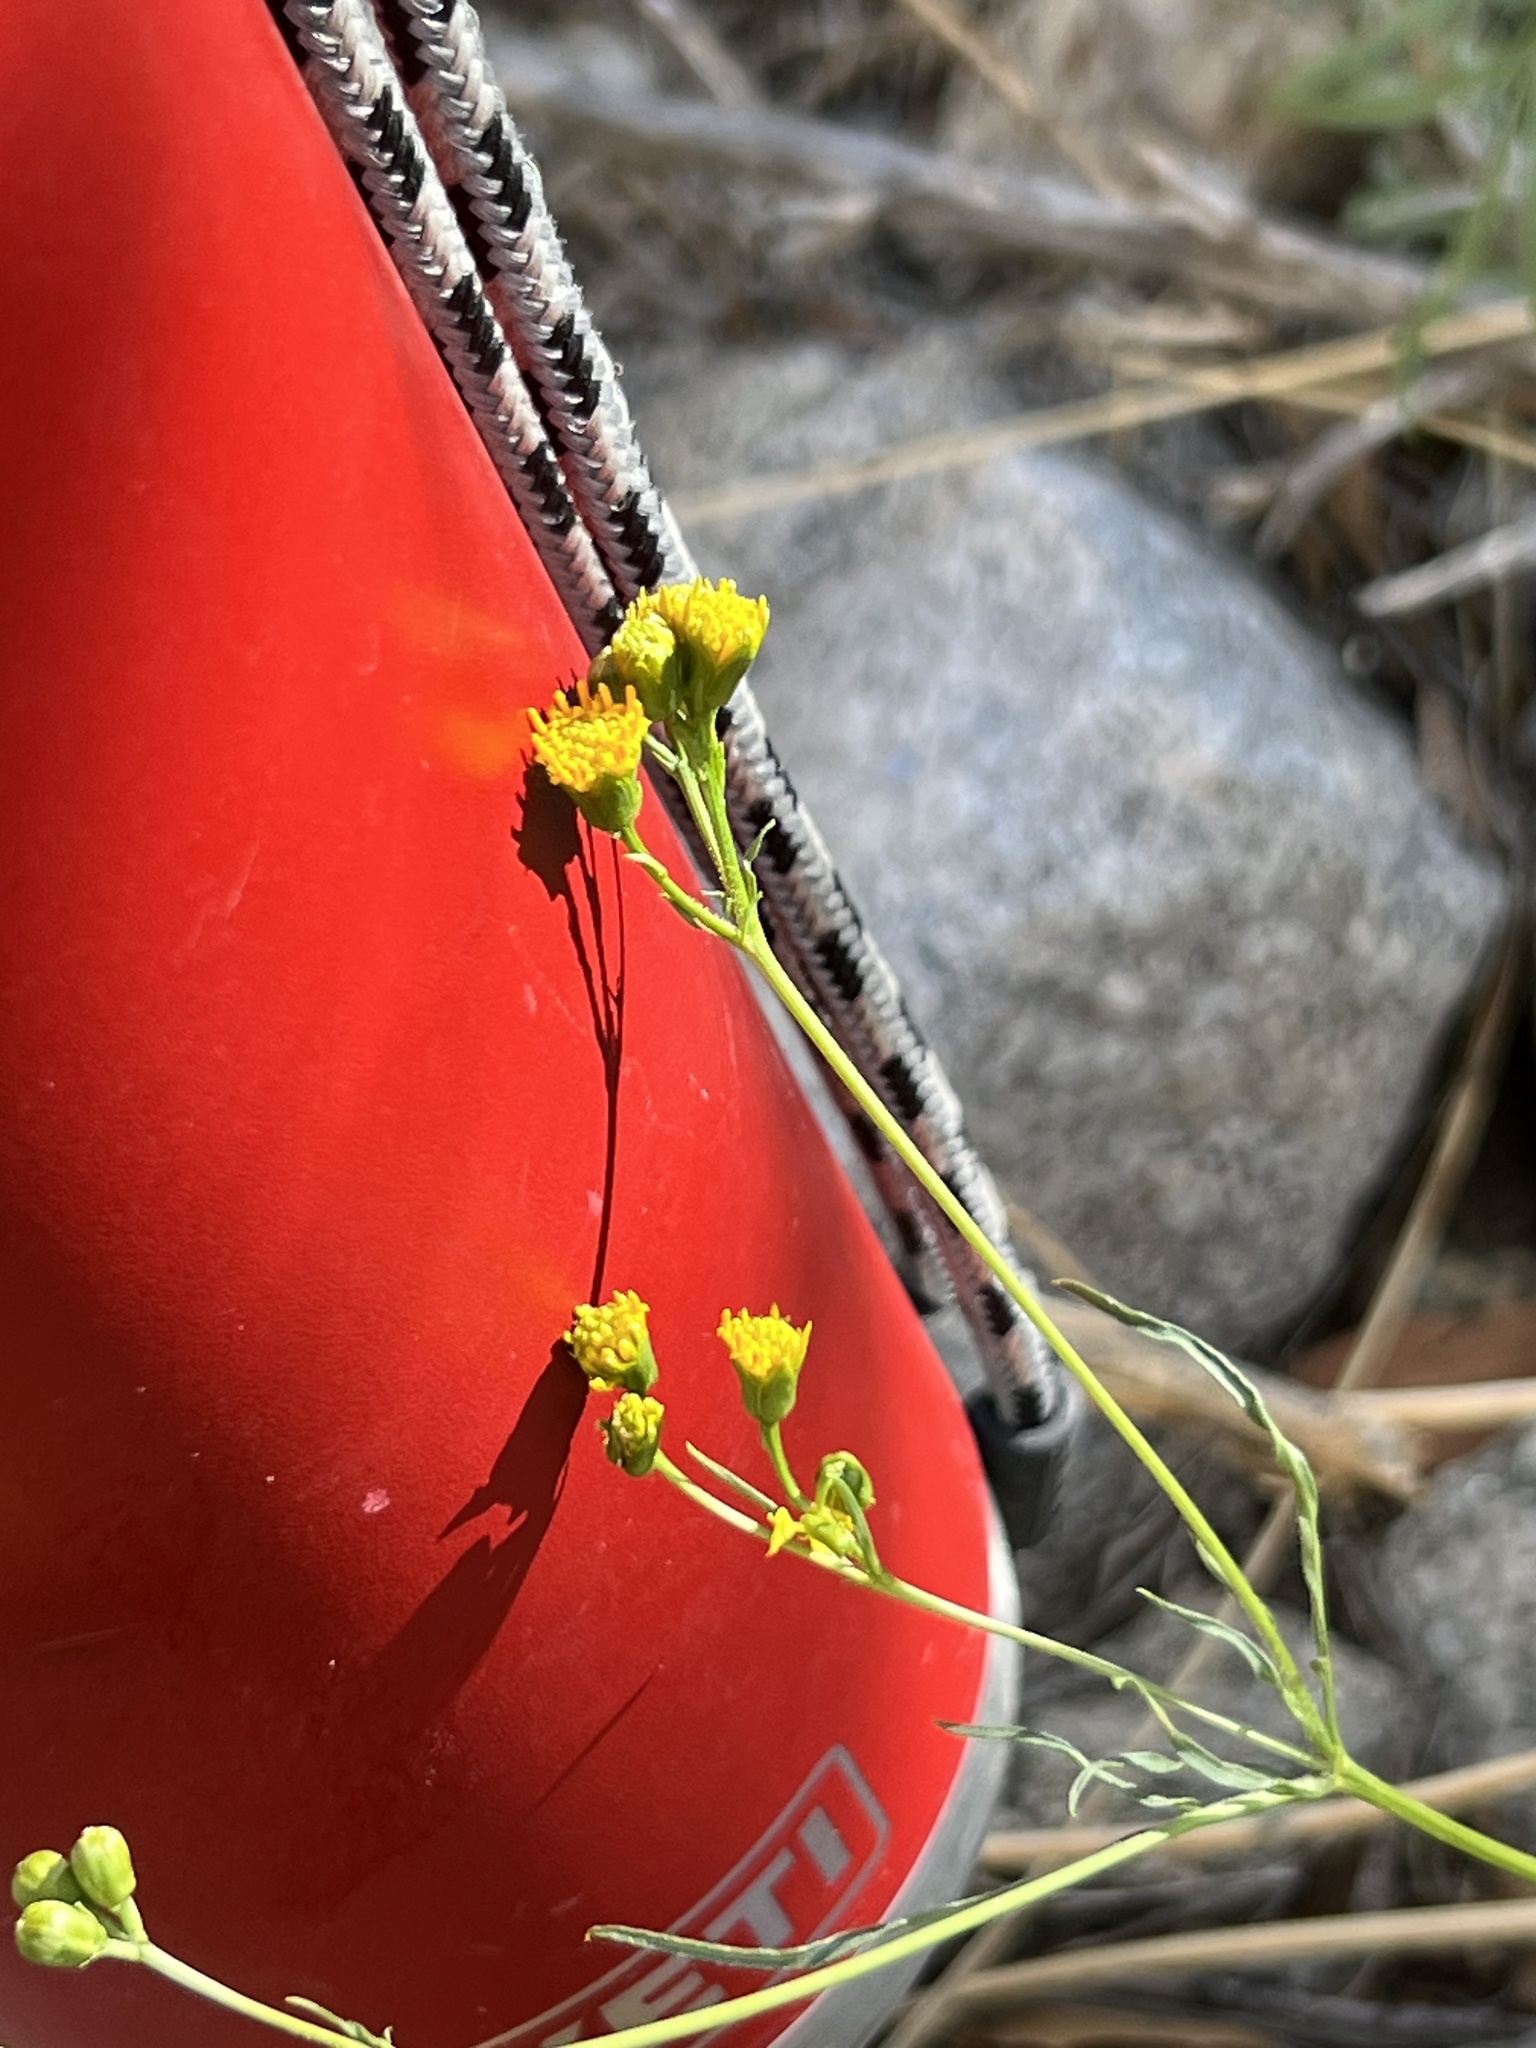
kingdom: Plantae
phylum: Tracheophyta
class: Magnoliopsida
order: Asterales
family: Asteraceae
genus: Hymenothrix
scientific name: Hymenothrix wislizeni
